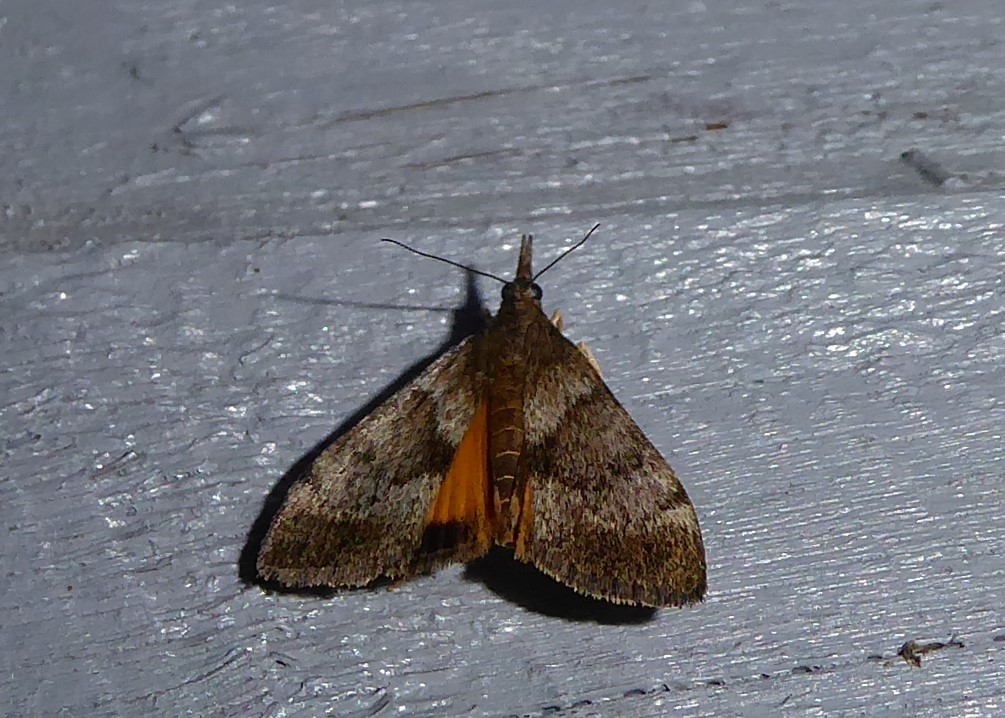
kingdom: Animalia
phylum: Arthropoda
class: Insecta
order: Lepidoptera
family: Crambidae
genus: Uresiphita
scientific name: Uresiphita
